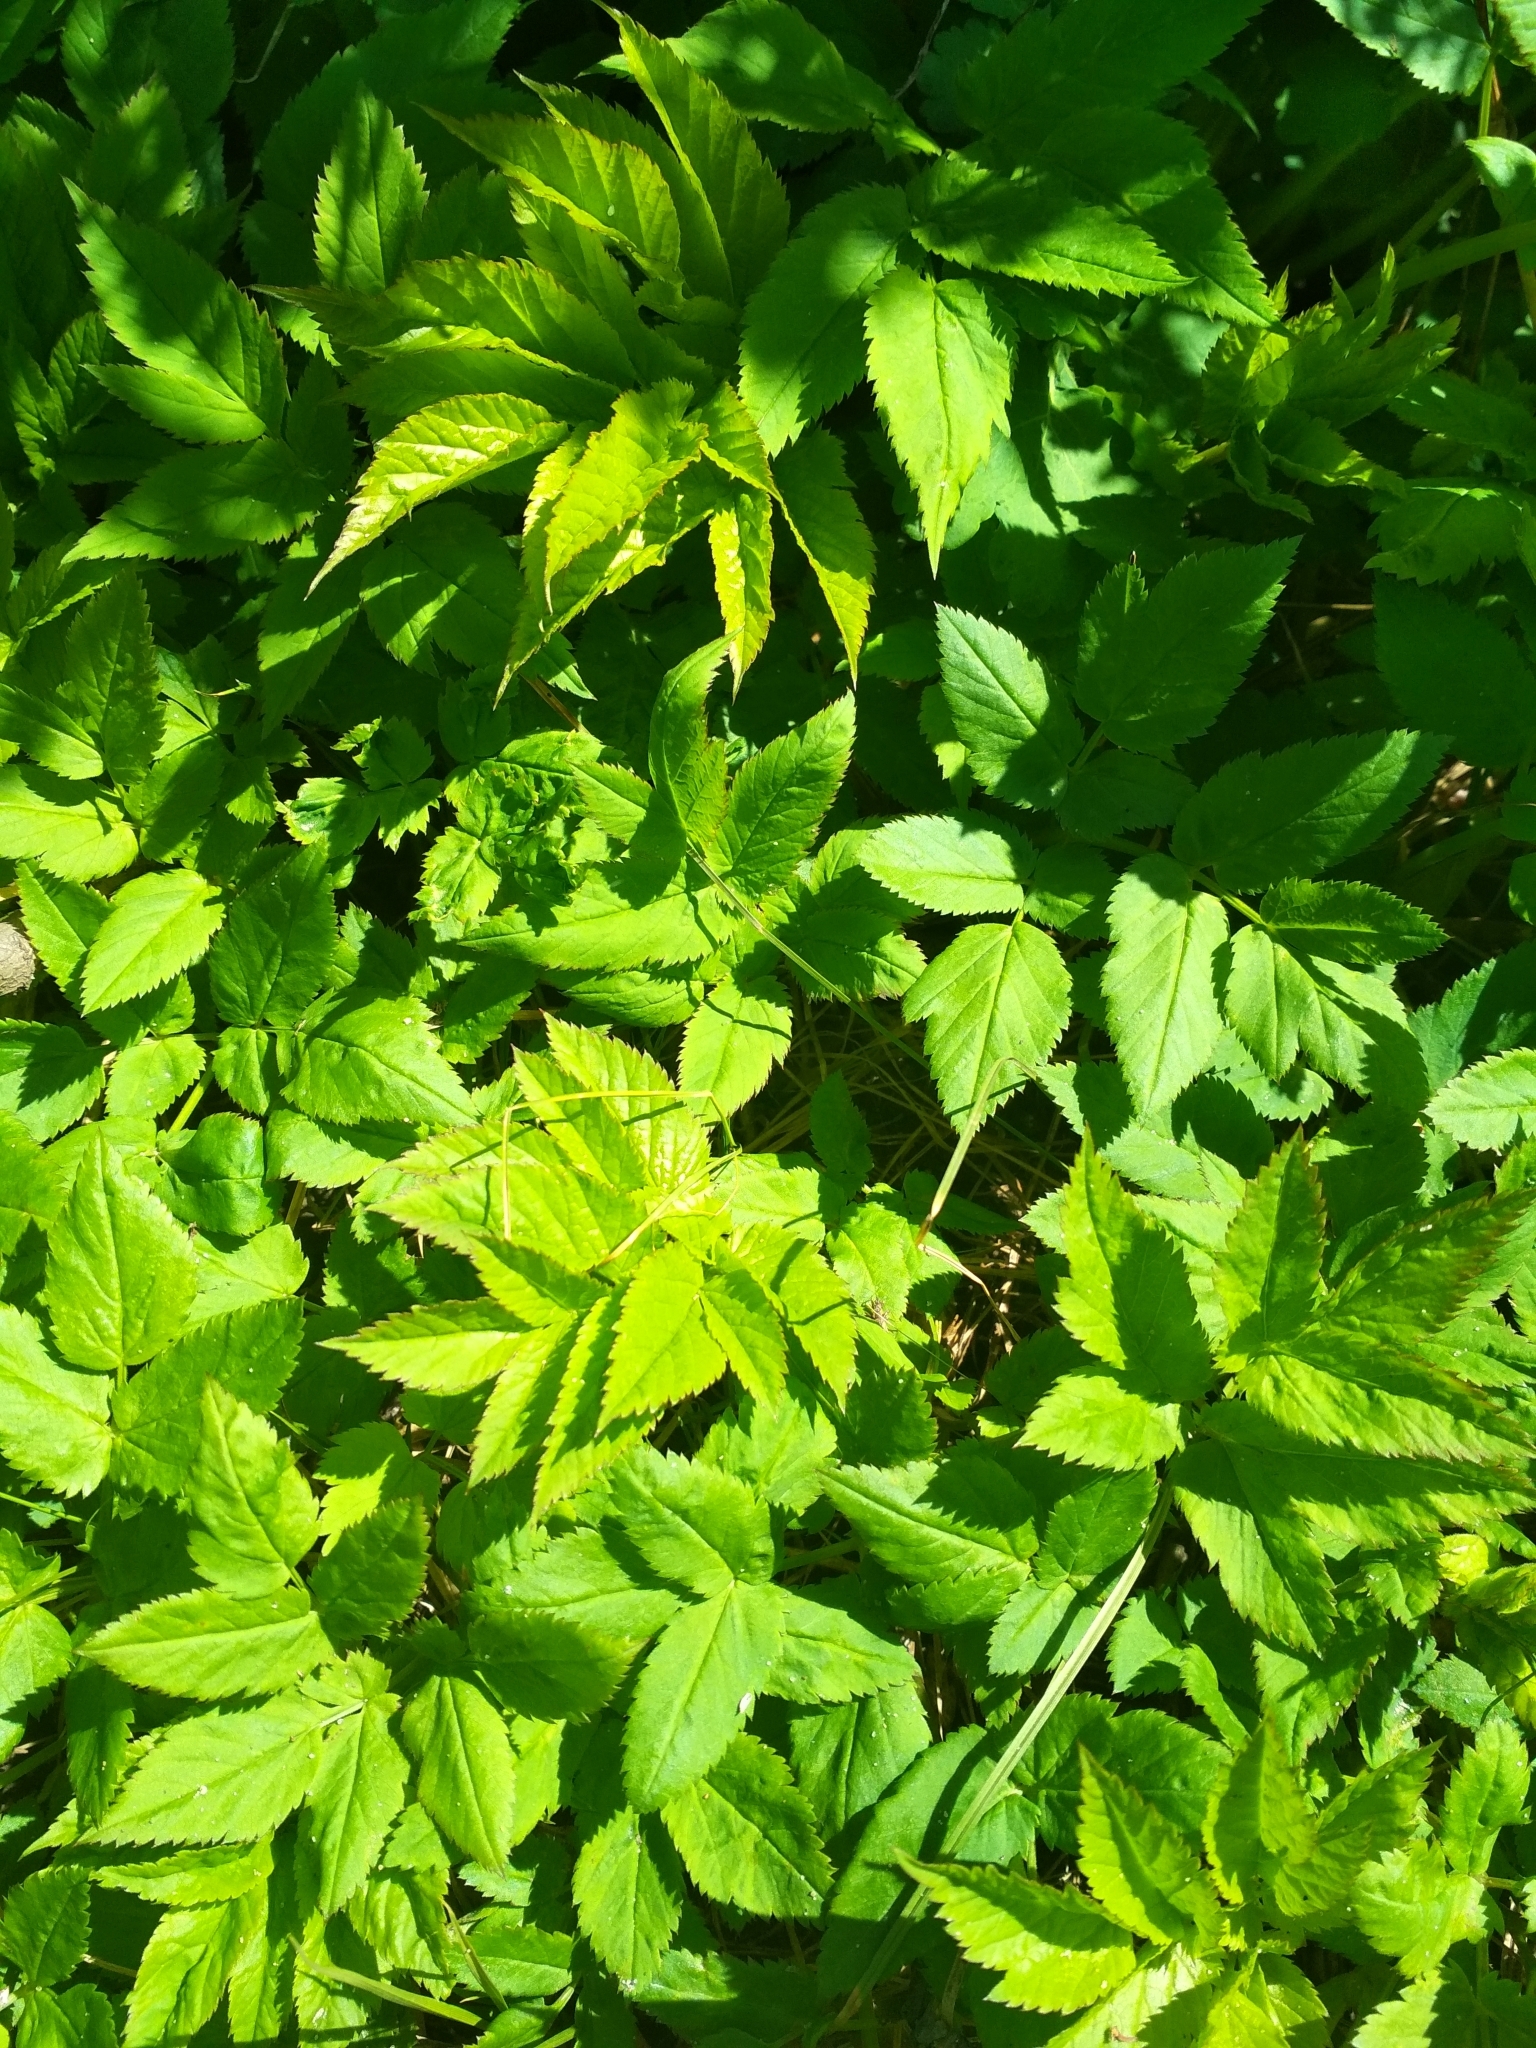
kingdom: Plantae
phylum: Tracheophyta
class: Magnoliopsida
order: Apiales
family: Apiaceae
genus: Aegopodium
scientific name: Aegopodium podagraria
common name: Ground-elder
